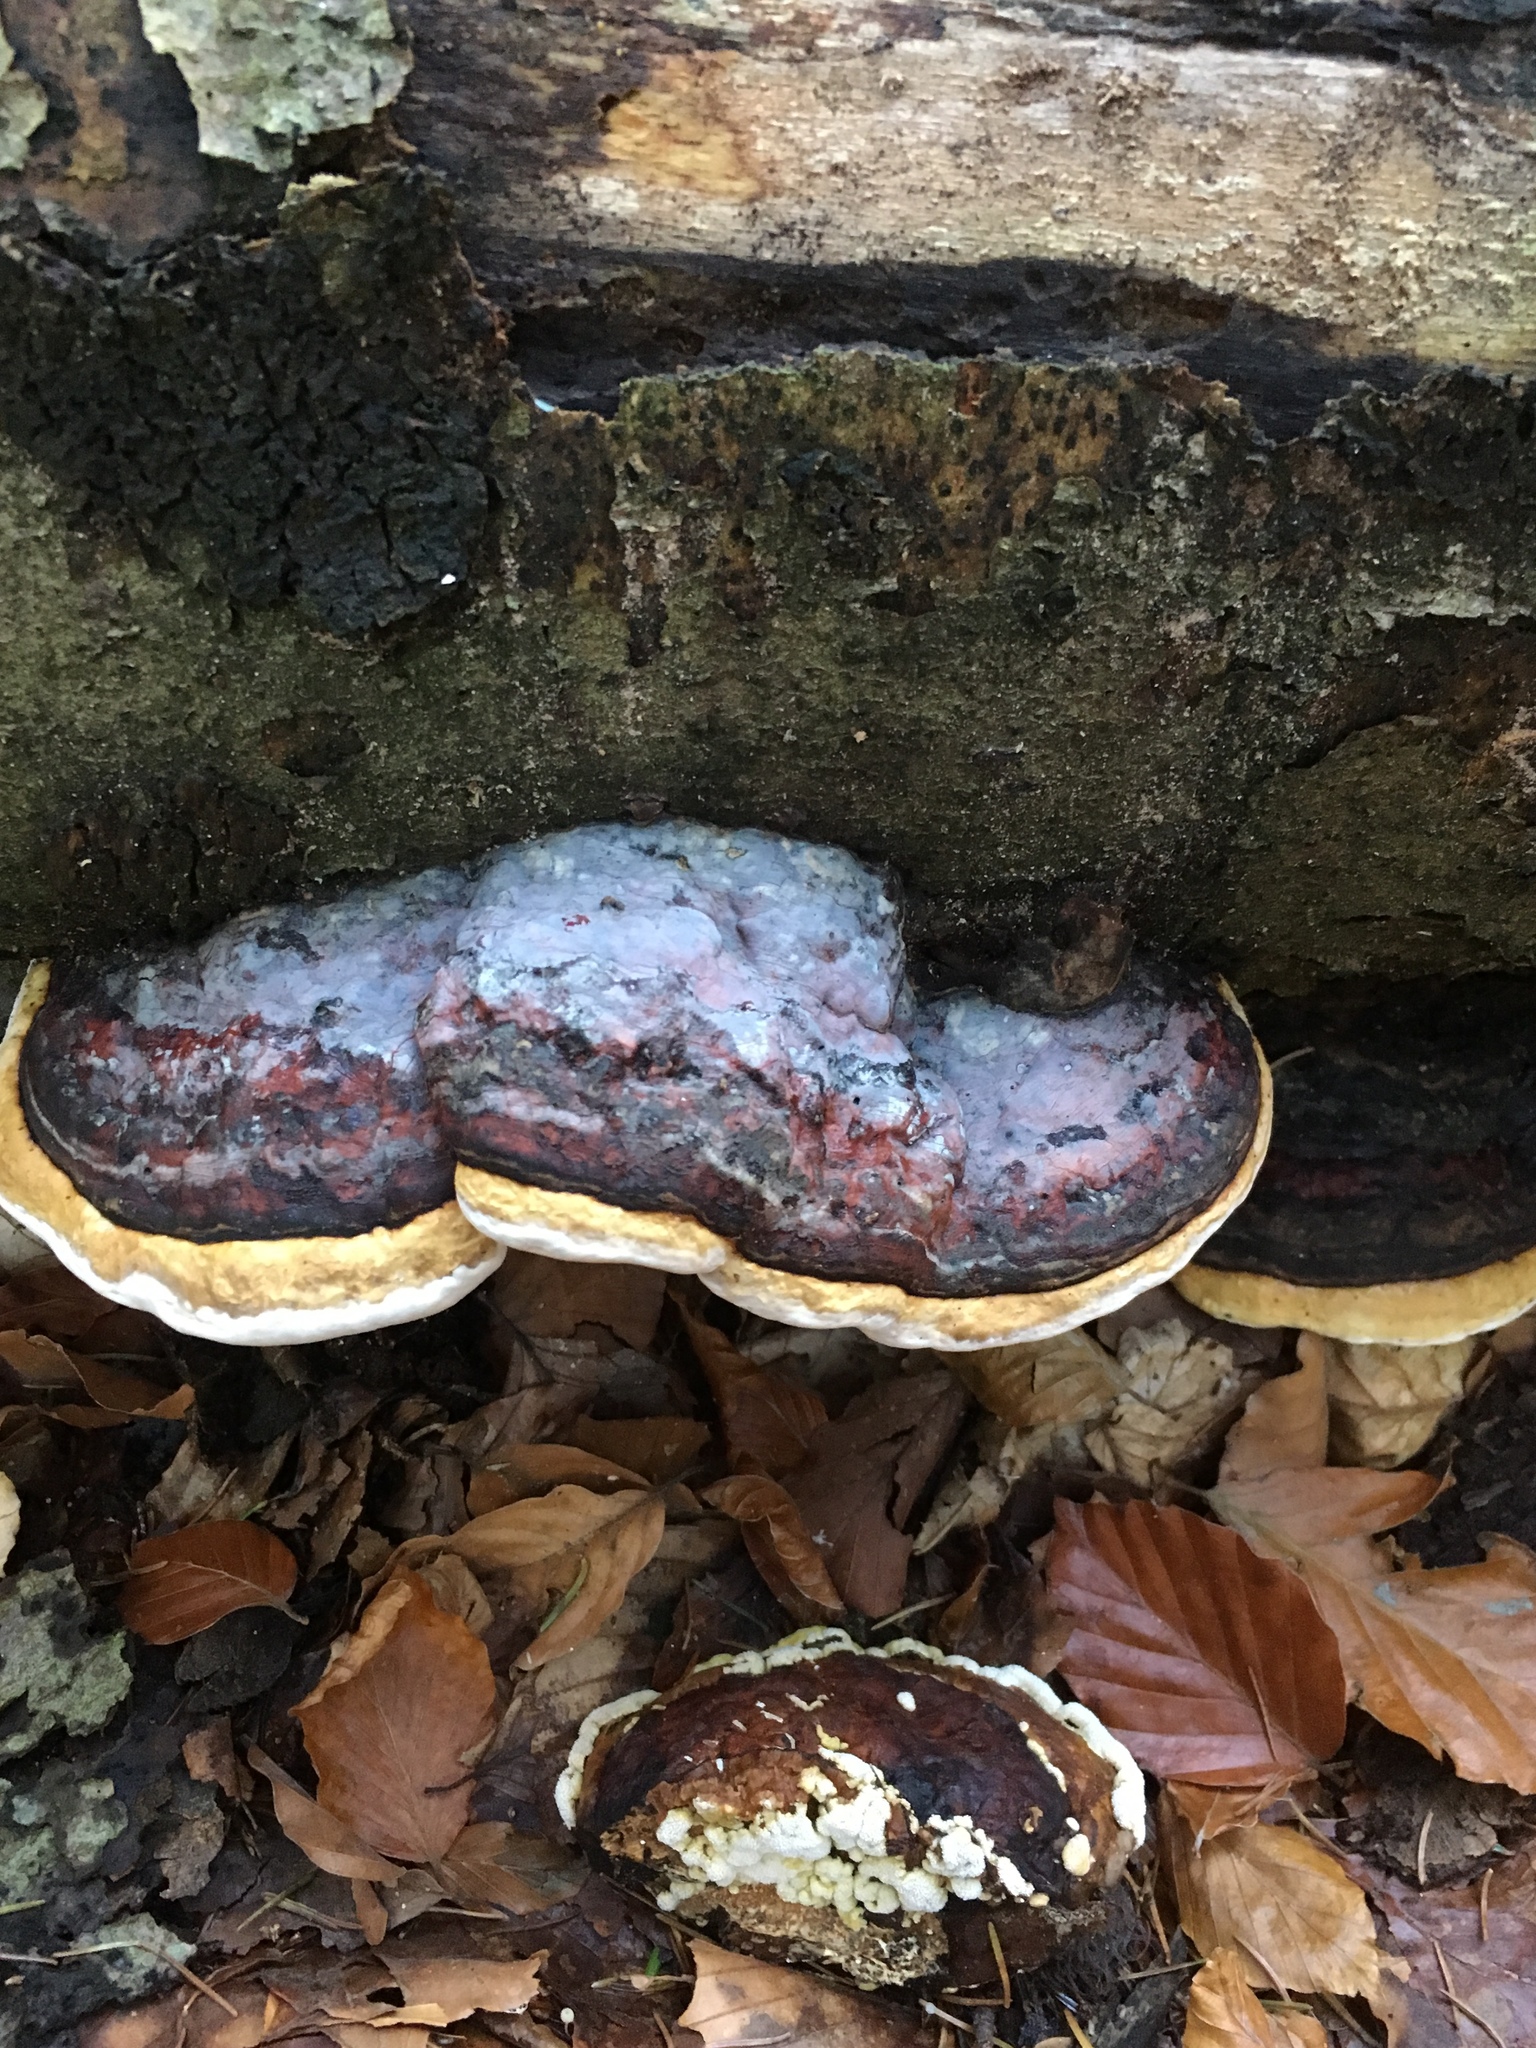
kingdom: Fungi
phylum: Basidiomycota
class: Agaricomycetes
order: Polyporales
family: Fomitopsidaceae
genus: Fomitopsis
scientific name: Fomitopsis pinicola
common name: Red-belted bracket
